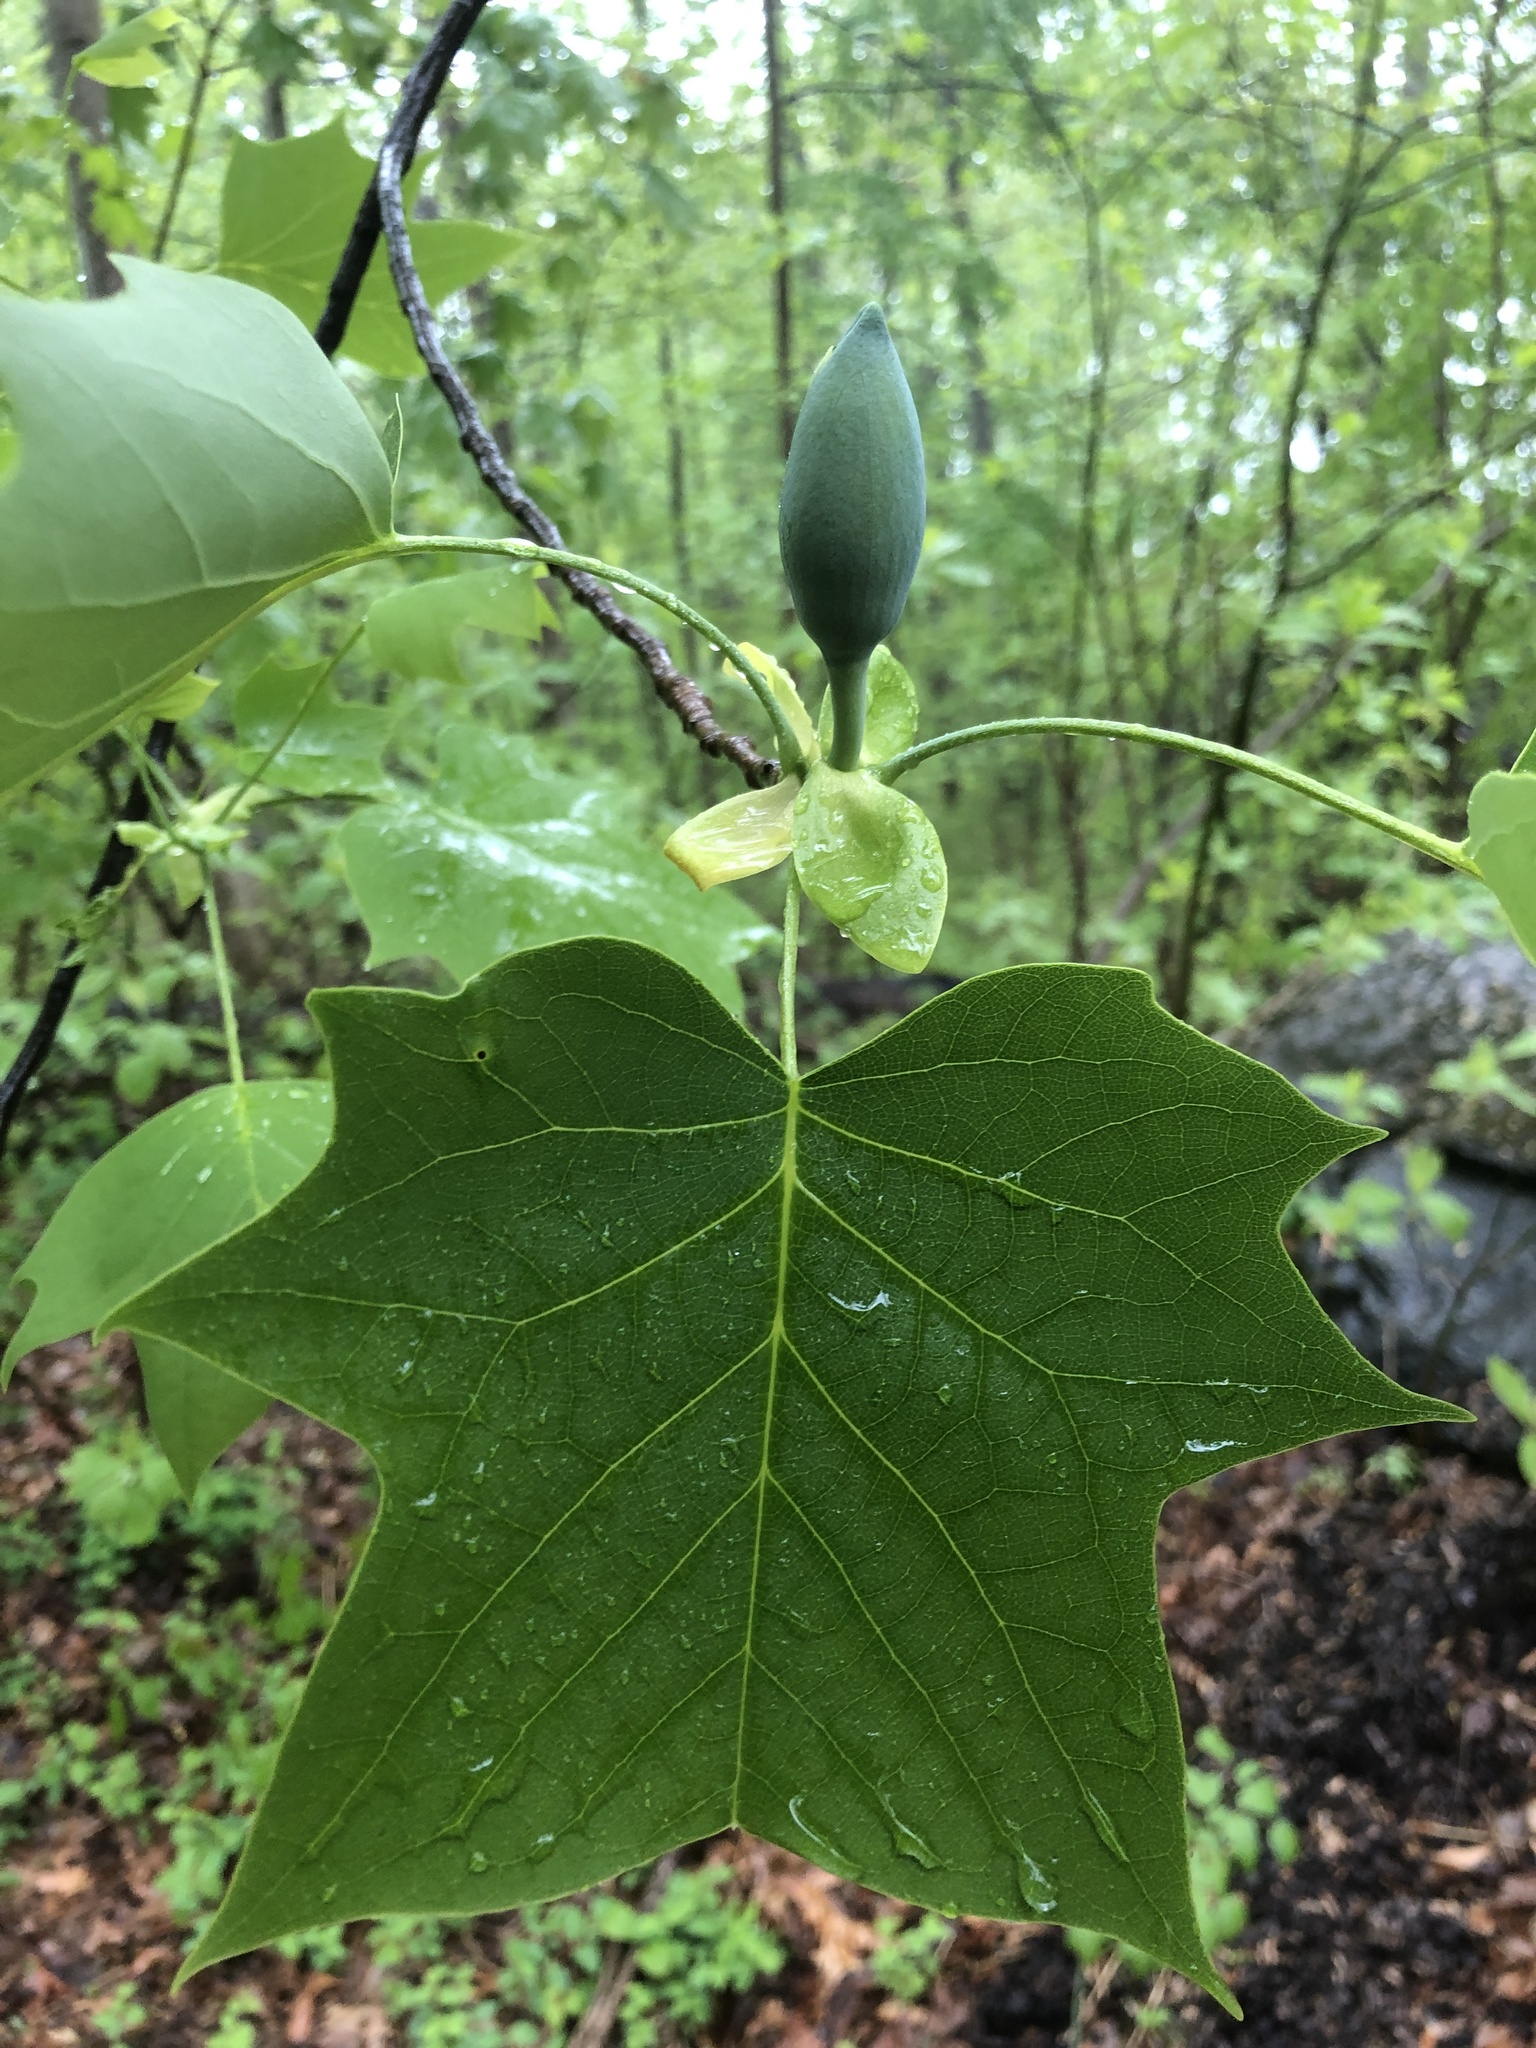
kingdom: Plantae
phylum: Tracheophyta
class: Magnoliopsida
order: Magnoliales
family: Magnoliaceae
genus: Liriodendron
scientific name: Liriodendron tulipifera
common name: Tulip tree
